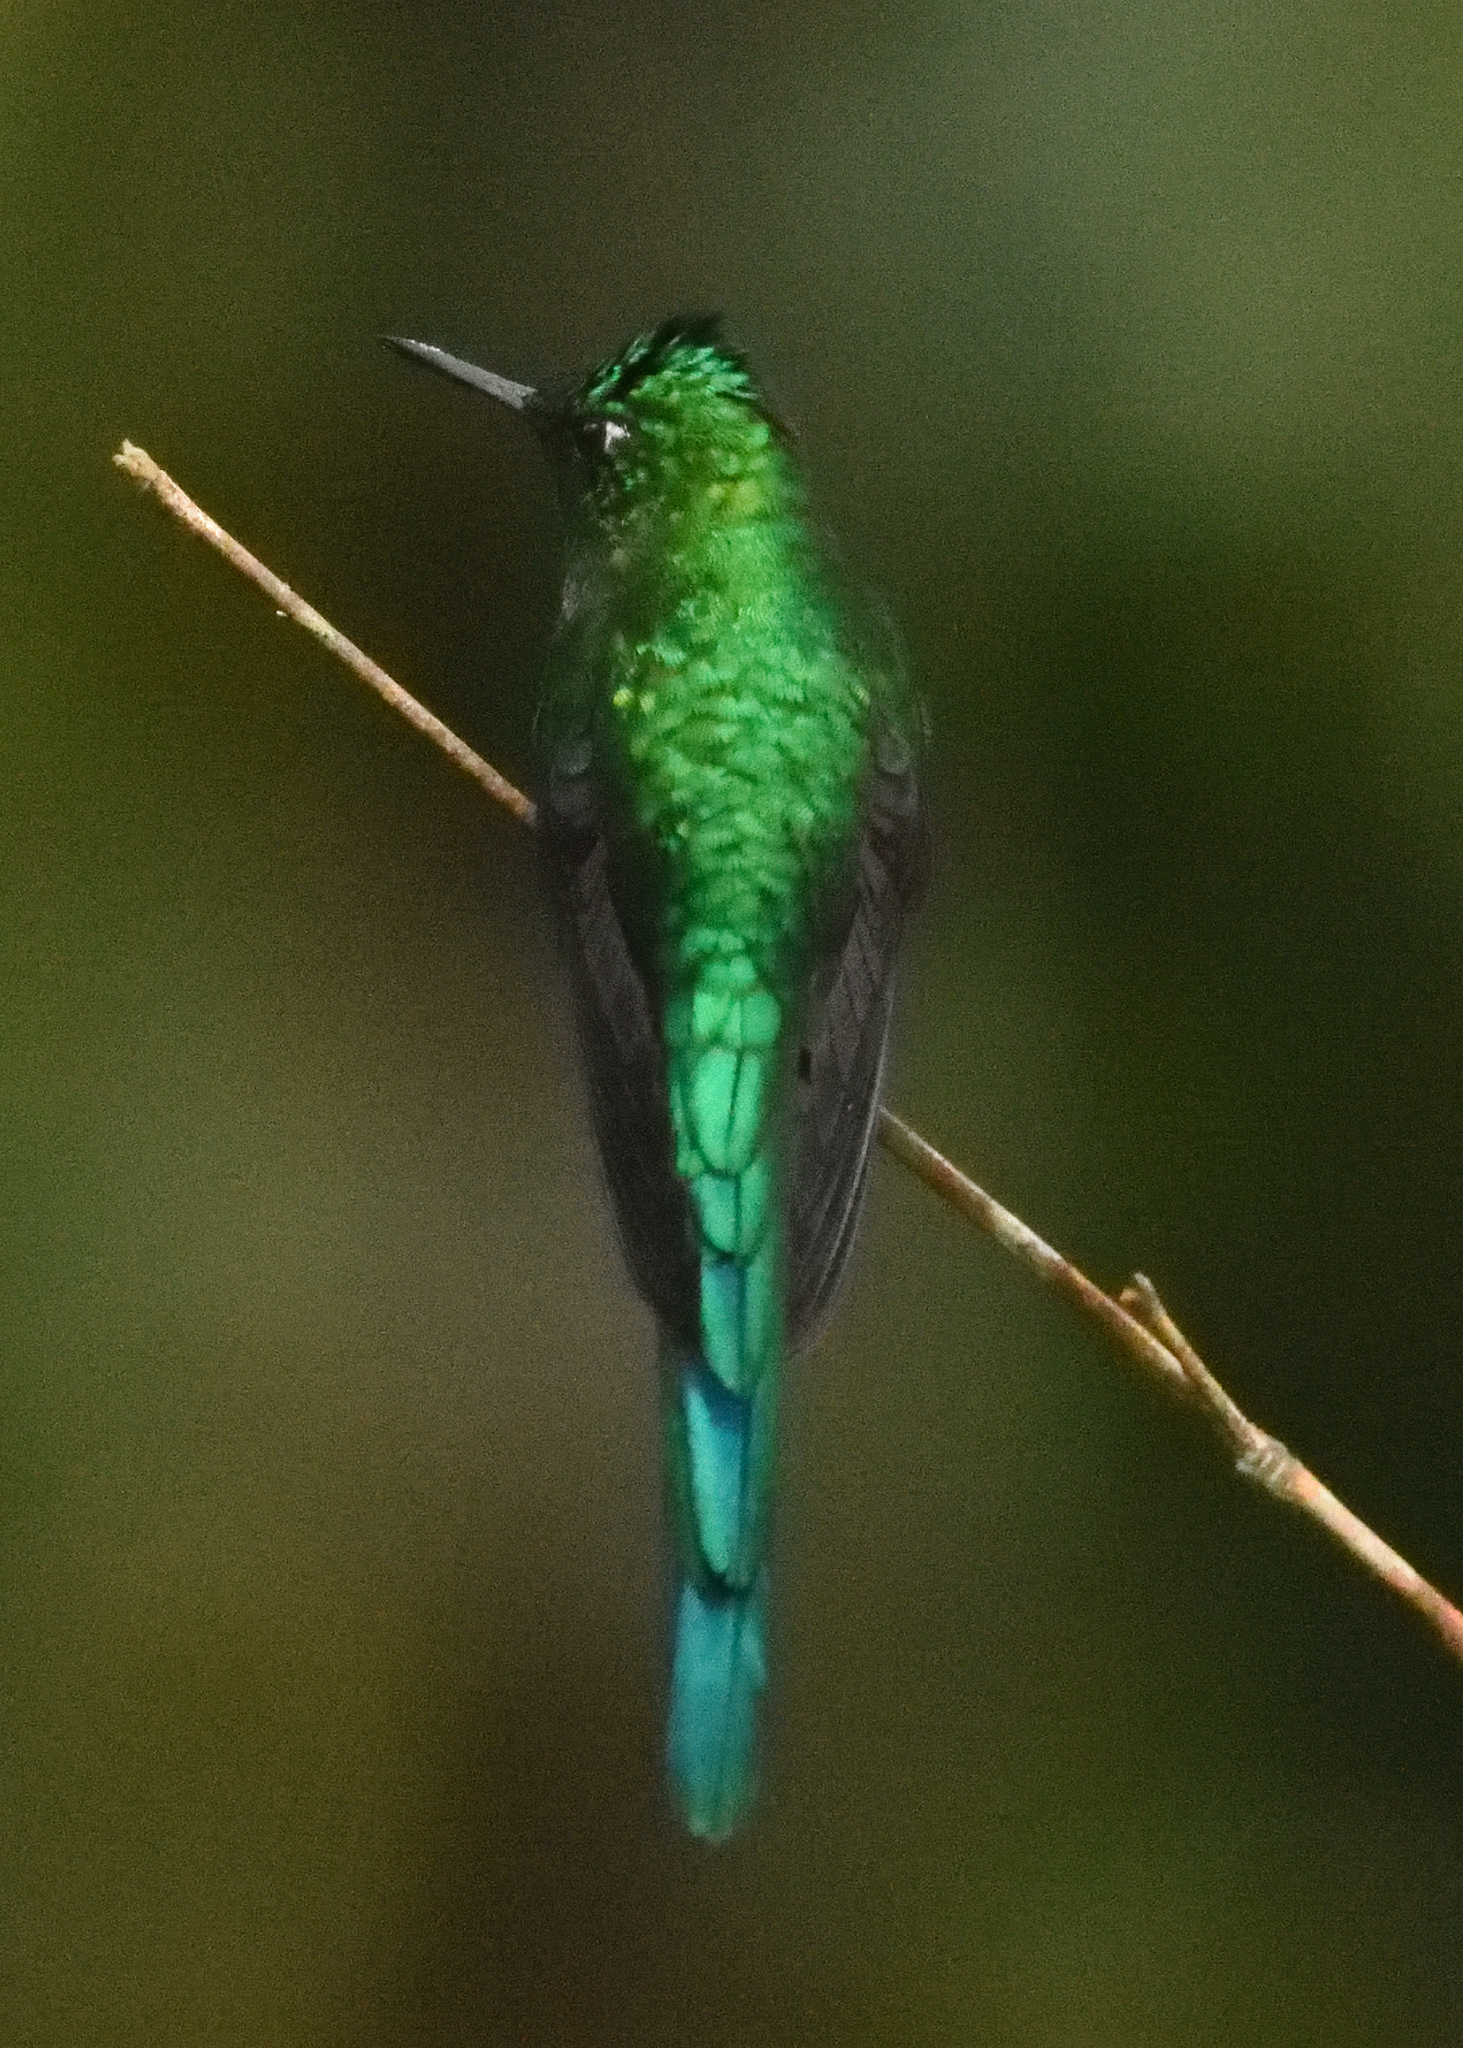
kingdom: Animalia
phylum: Chordata
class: Aves
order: Apodiformes
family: Trochilidae
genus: Aglaiocercus
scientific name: Aglaiocercus kingii
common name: Long-tailed sylph
